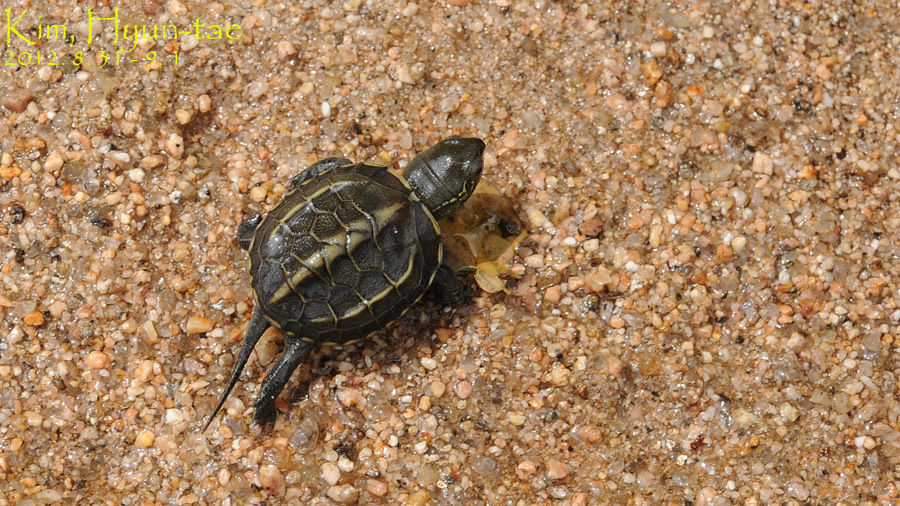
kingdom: Animalia
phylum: Chordata
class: Testudines
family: Geoemydidae
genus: Mauremys
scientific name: Mauremys reevesii
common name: Chinese pond turtle
